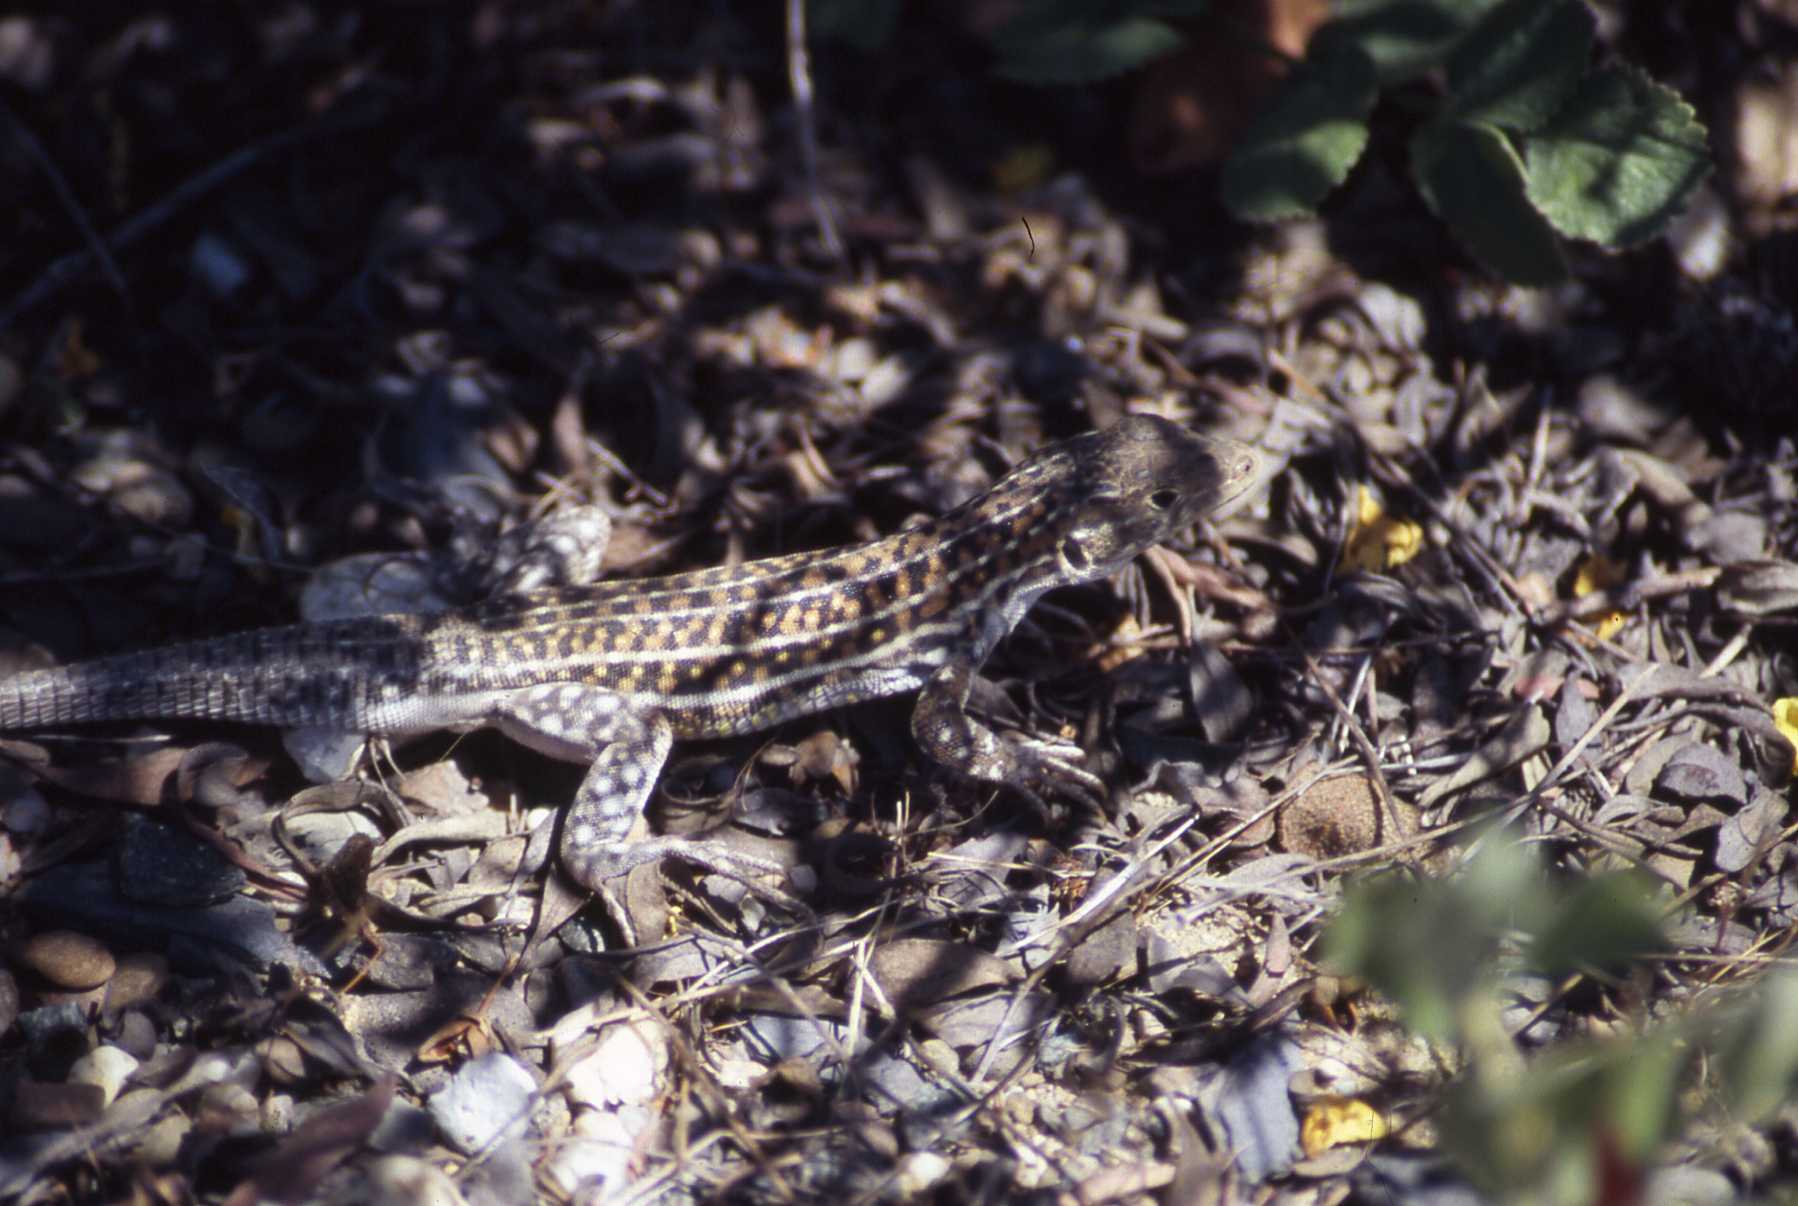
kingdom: Animalia
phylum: Chordata
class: Squamata
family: Lacertidae
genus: Acanthodactylus
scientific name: Acanthodactylus erythrurus
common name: Spiny-footed lizard
